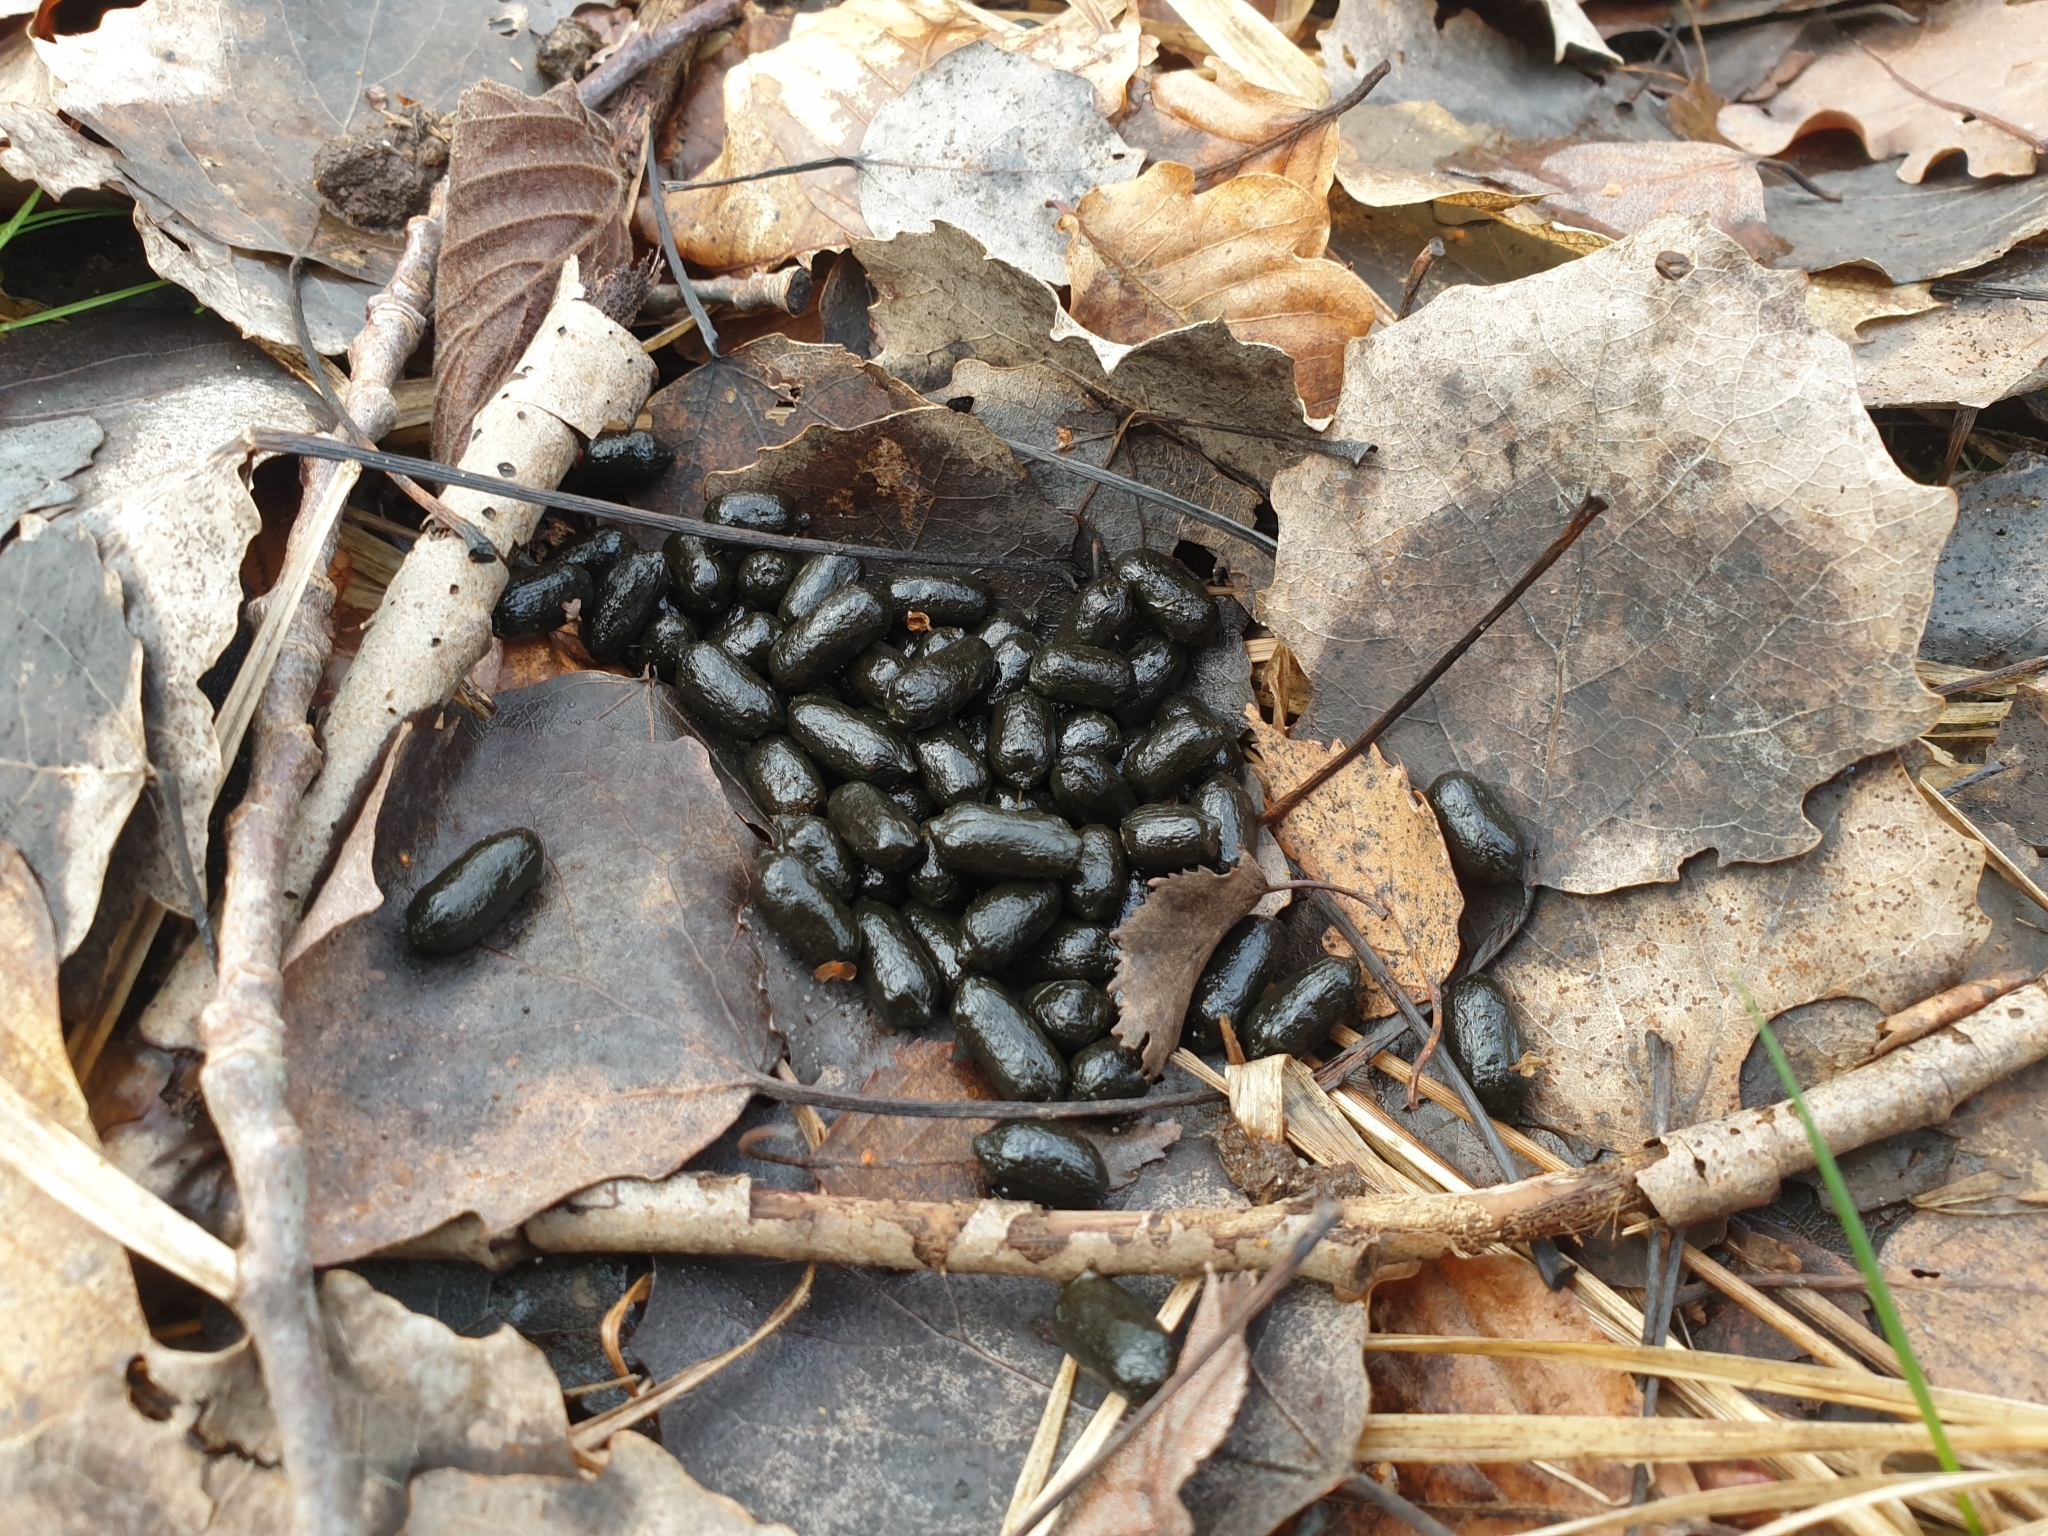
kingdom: Animalia
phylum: Chordata
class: Mammalia
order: Artiodactyla
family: Cervidae
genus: Capreolus
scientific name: Capreolus capreolus
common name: Western roe deer
